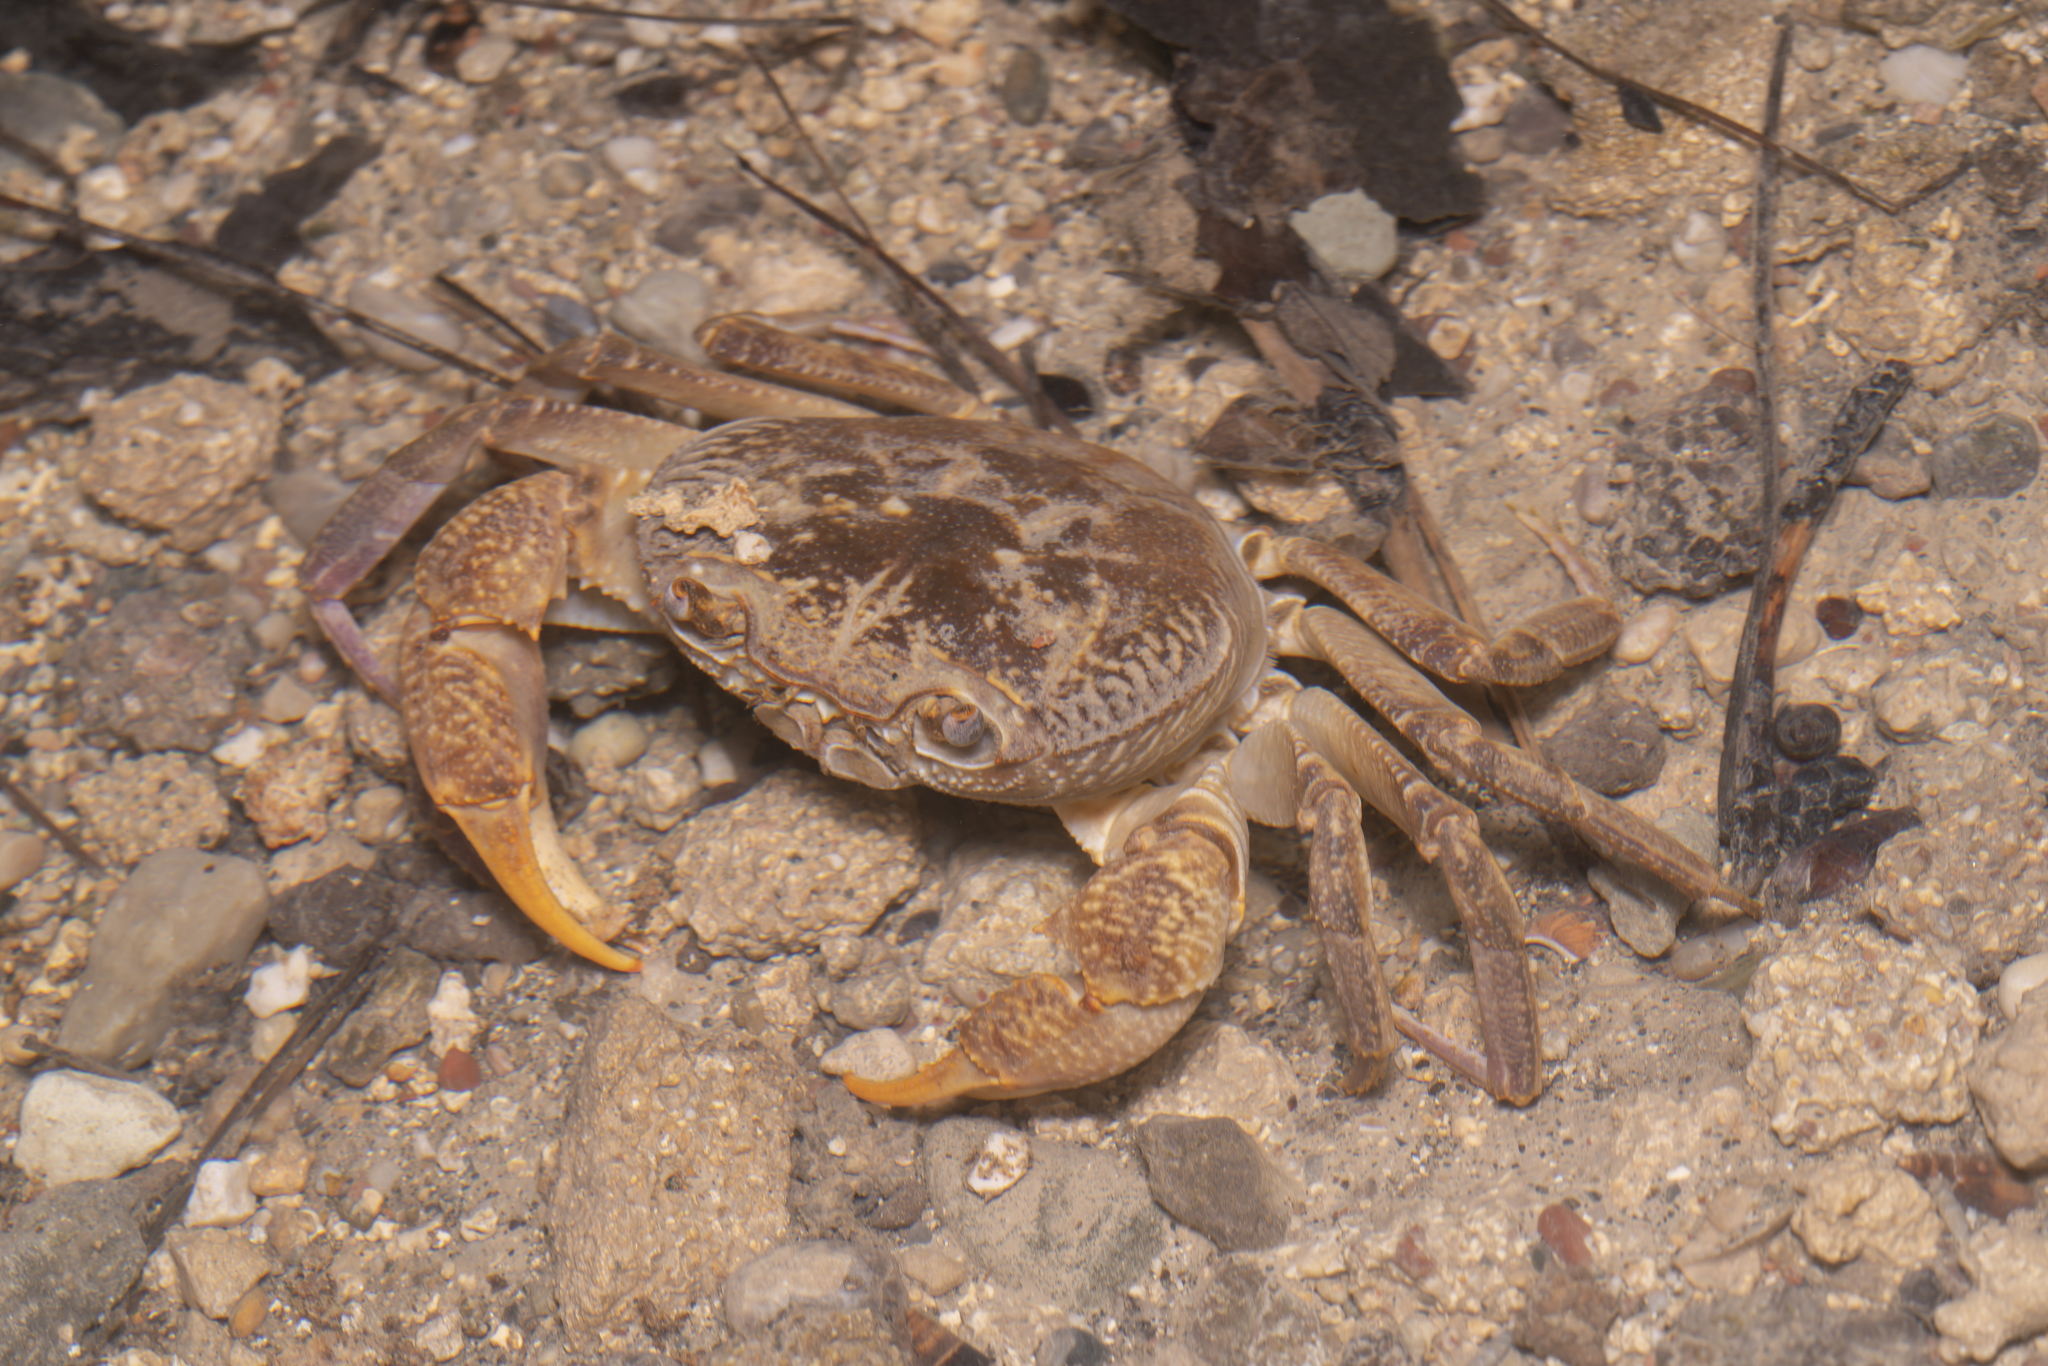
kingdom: Animalia
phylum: Arthropoda
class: Malacostraca
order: Decapoda
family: Potamidae
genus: Potamon
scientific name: Potamon rhodium
